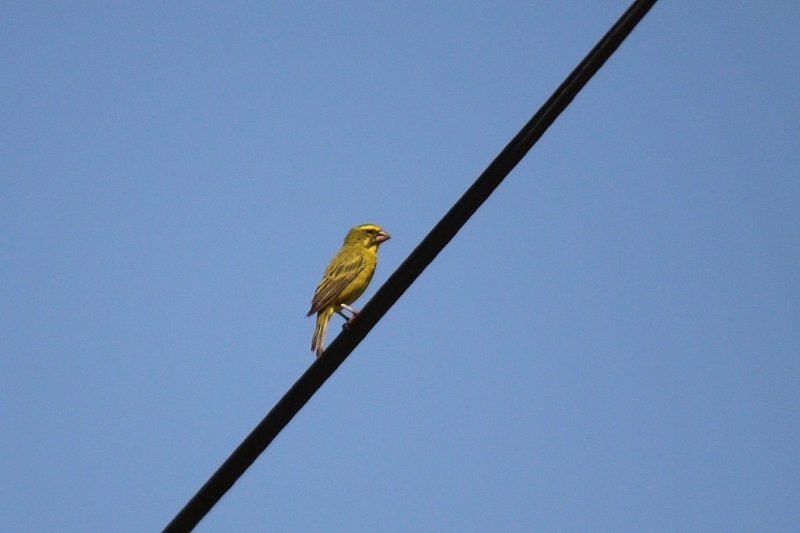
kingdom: Animalia
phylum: Chordata
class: Aves
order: Passeriformes
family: Fringillidae
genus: Crithagra
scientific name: Crithagra sulphurata
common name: Brimstone canary
